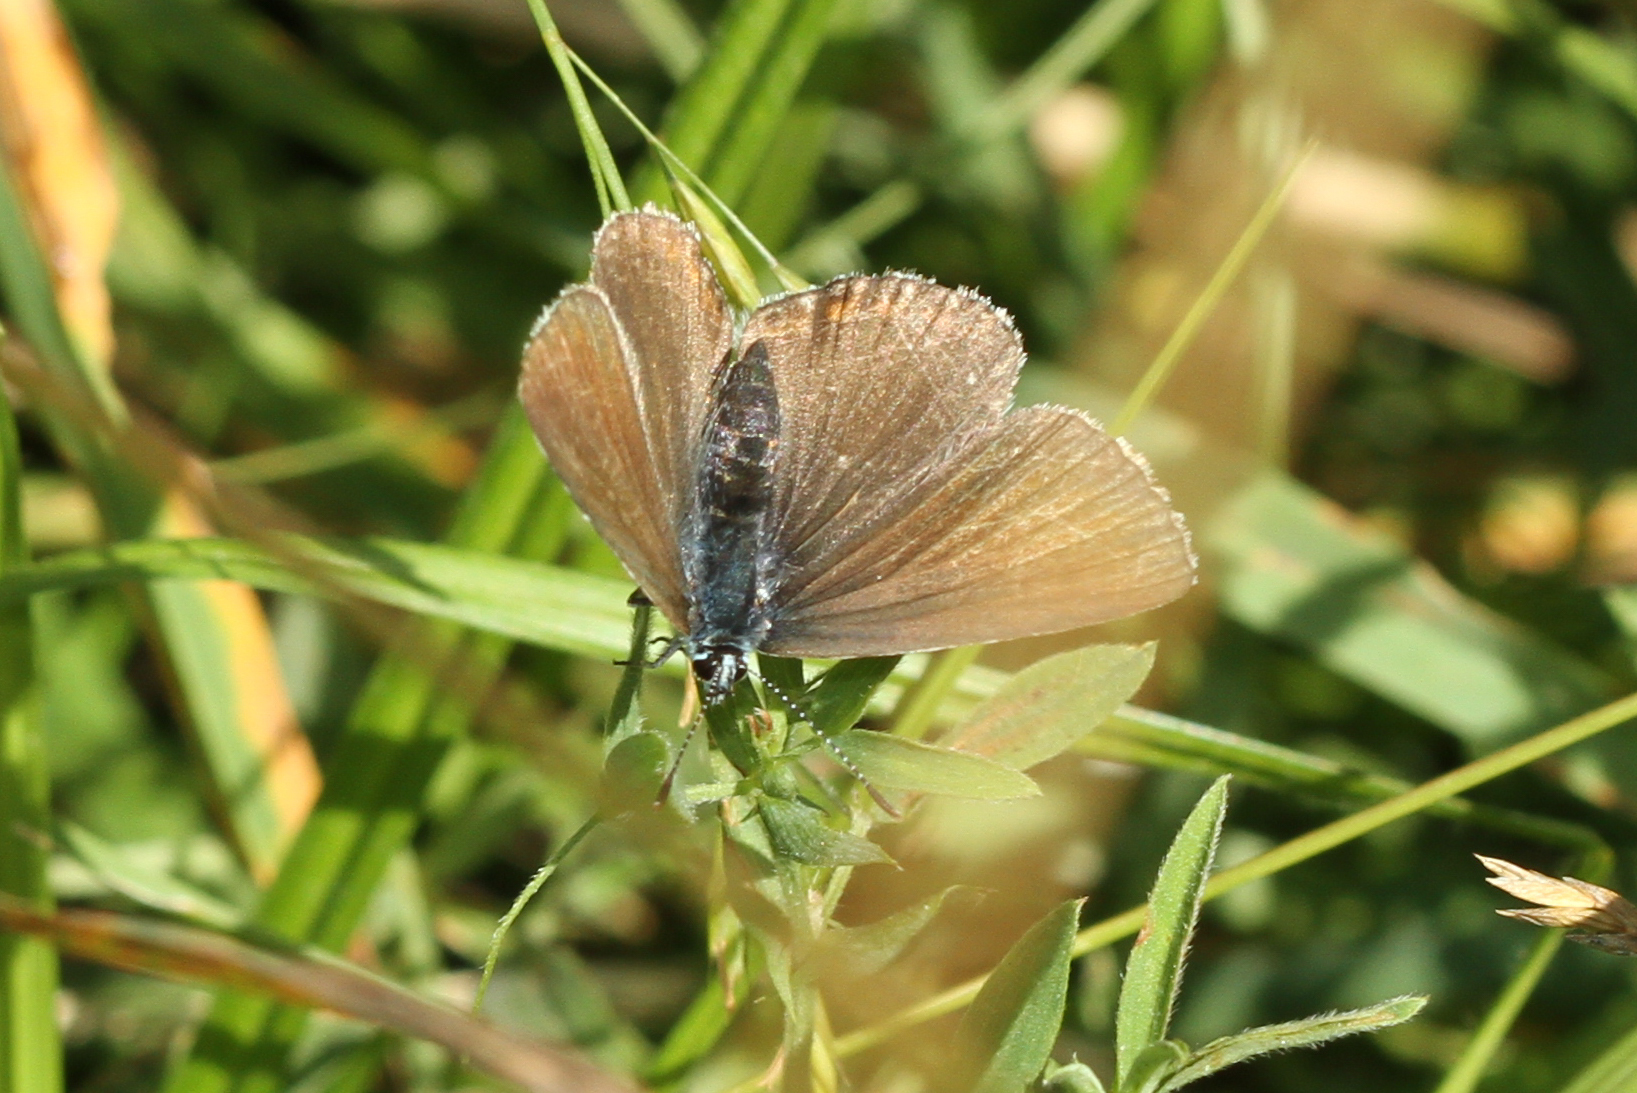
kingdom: Animalia
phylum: Arthropoda
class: Insecta
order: Lepidoptera
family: Lycaenidae
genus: Plebejus
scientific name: Plebejus amanda
